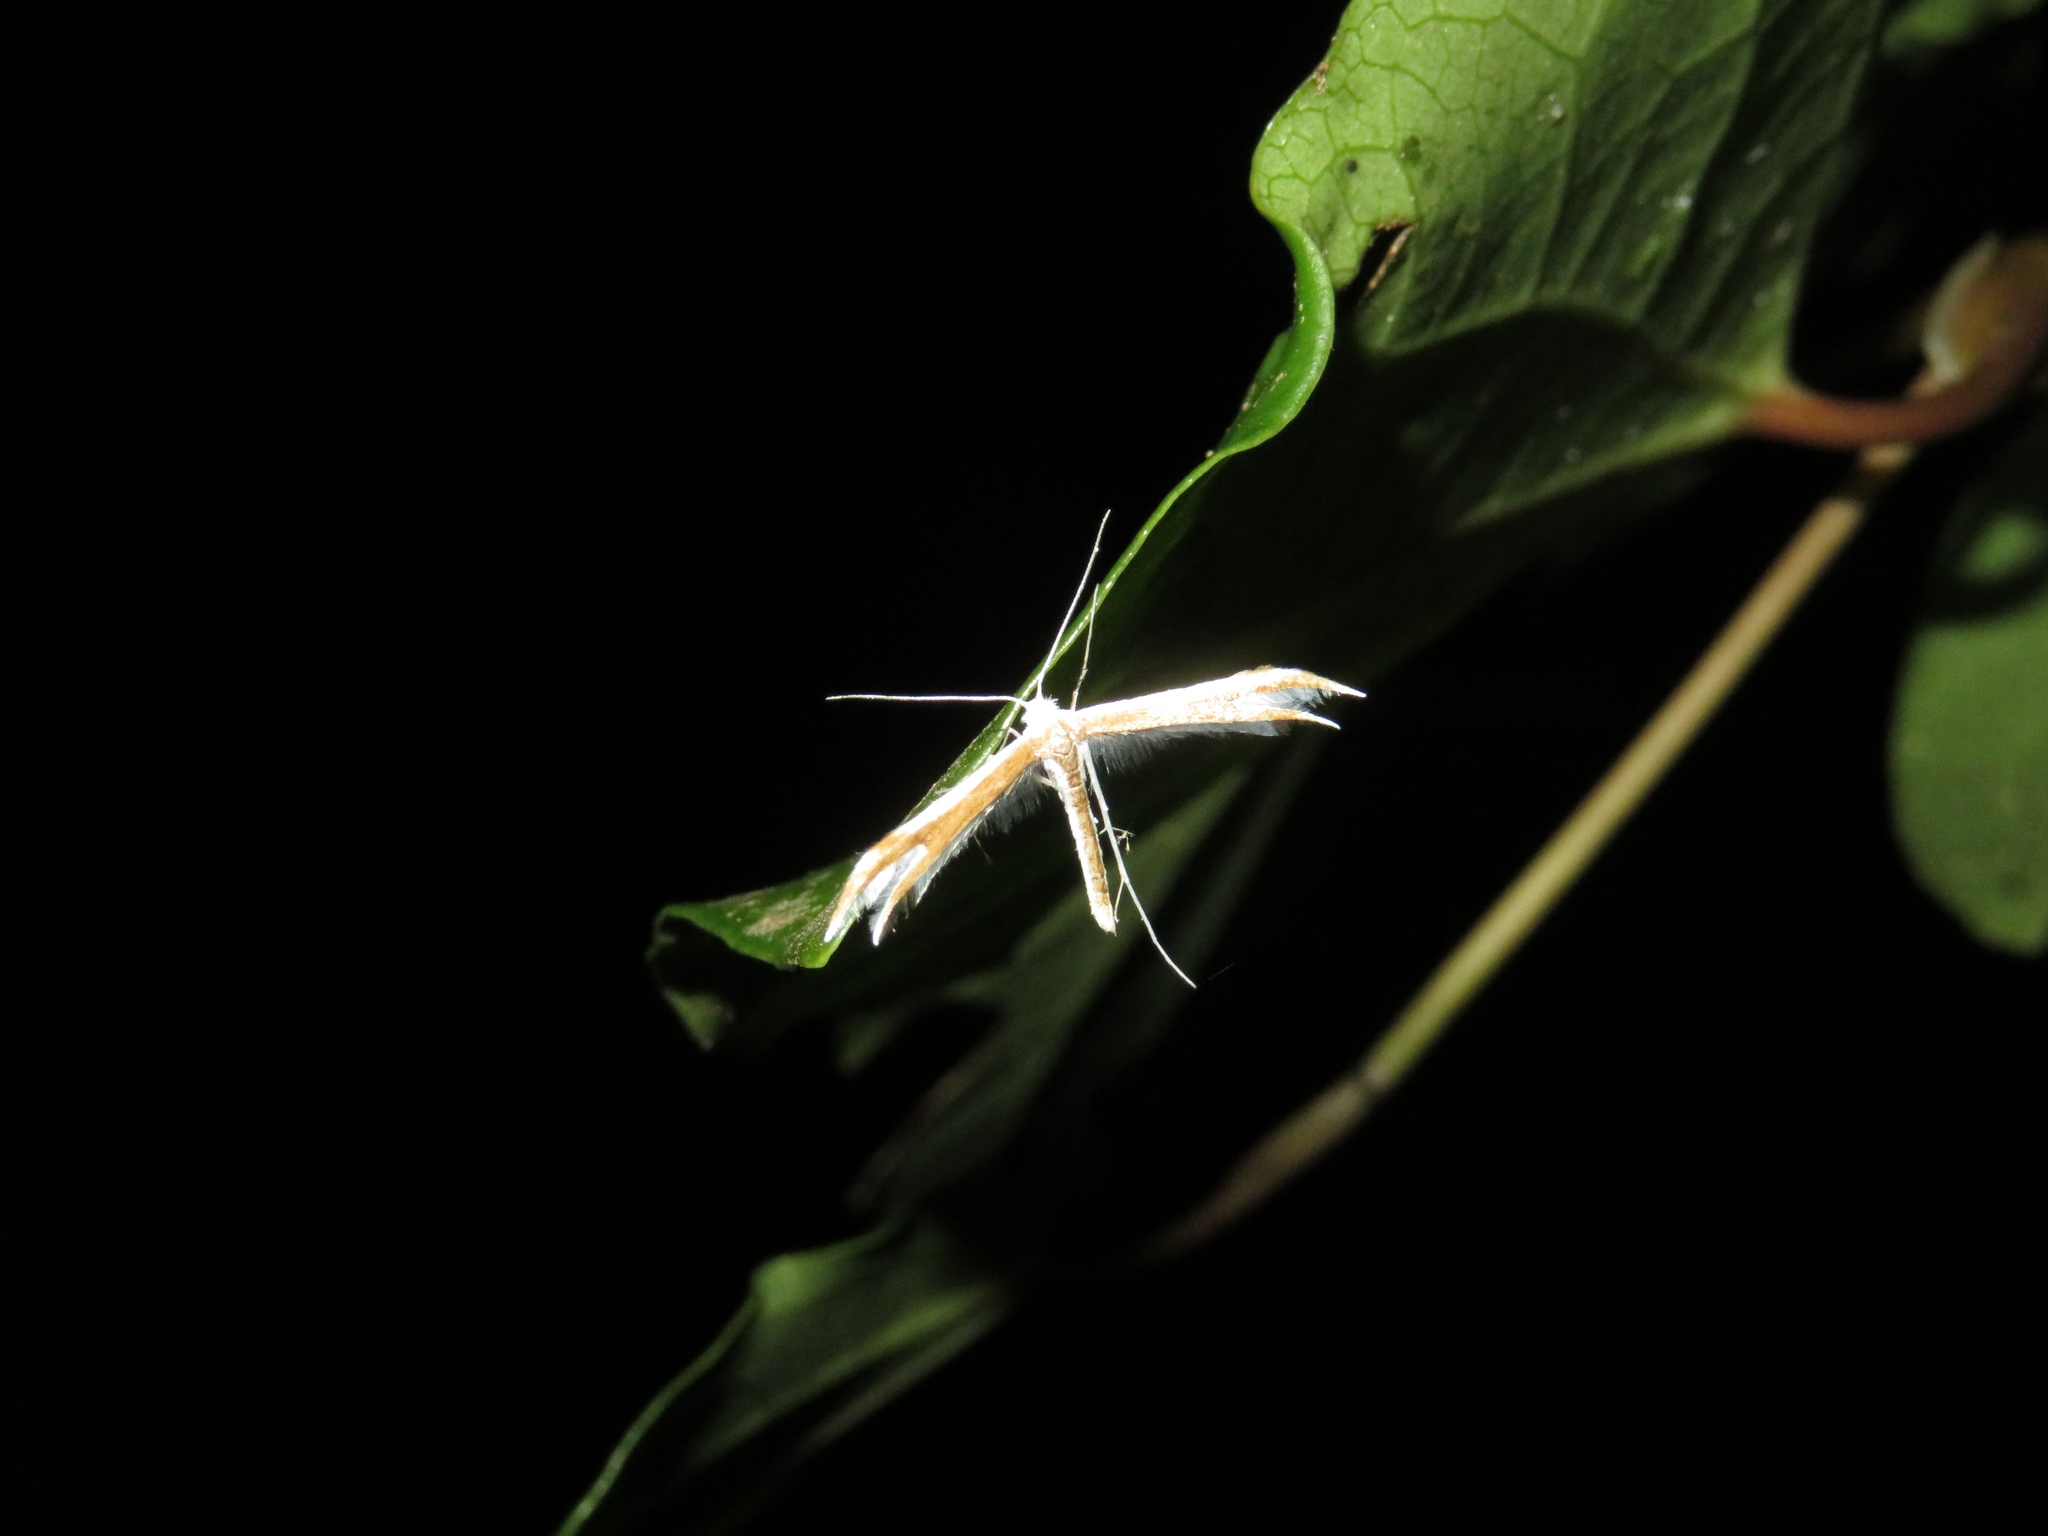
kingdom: Animalia
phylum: Arthropoda
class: Insecta
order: Lepidoptera
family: Pterophoridae
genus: Pterophorus
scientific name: Pterophorus furcatalis
